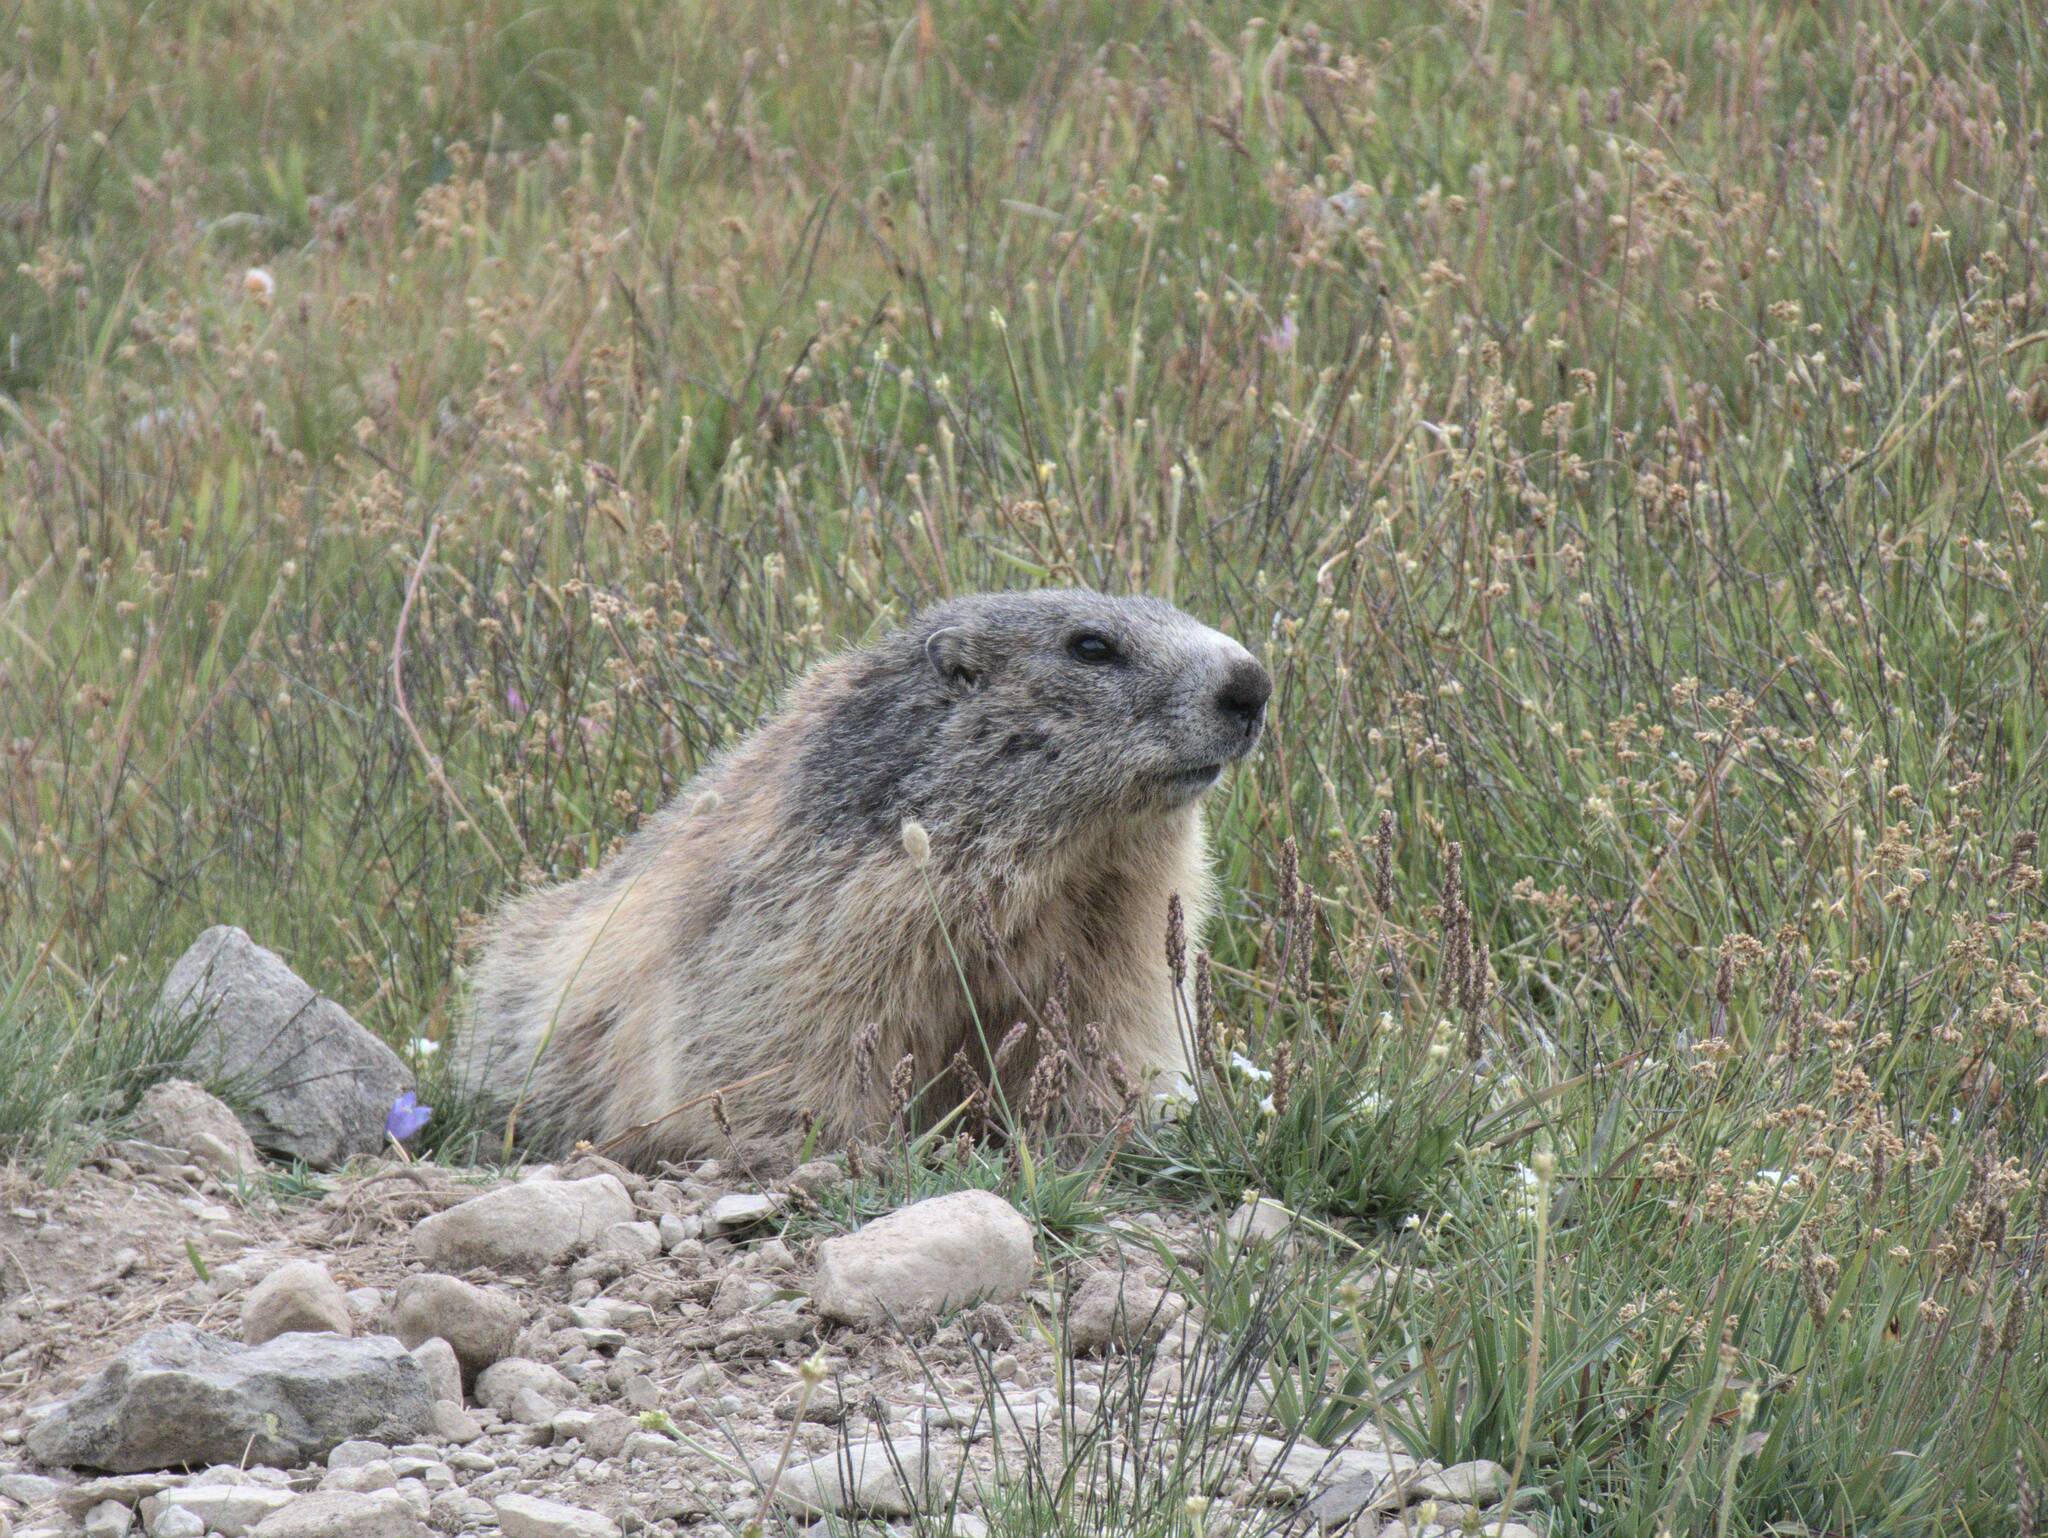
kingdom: Animalia
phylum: Chordata
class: Mammalia
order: Rodentia
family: Sciuridae
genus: Marmota
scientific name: Marmota marmota
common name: Alpine marmot
